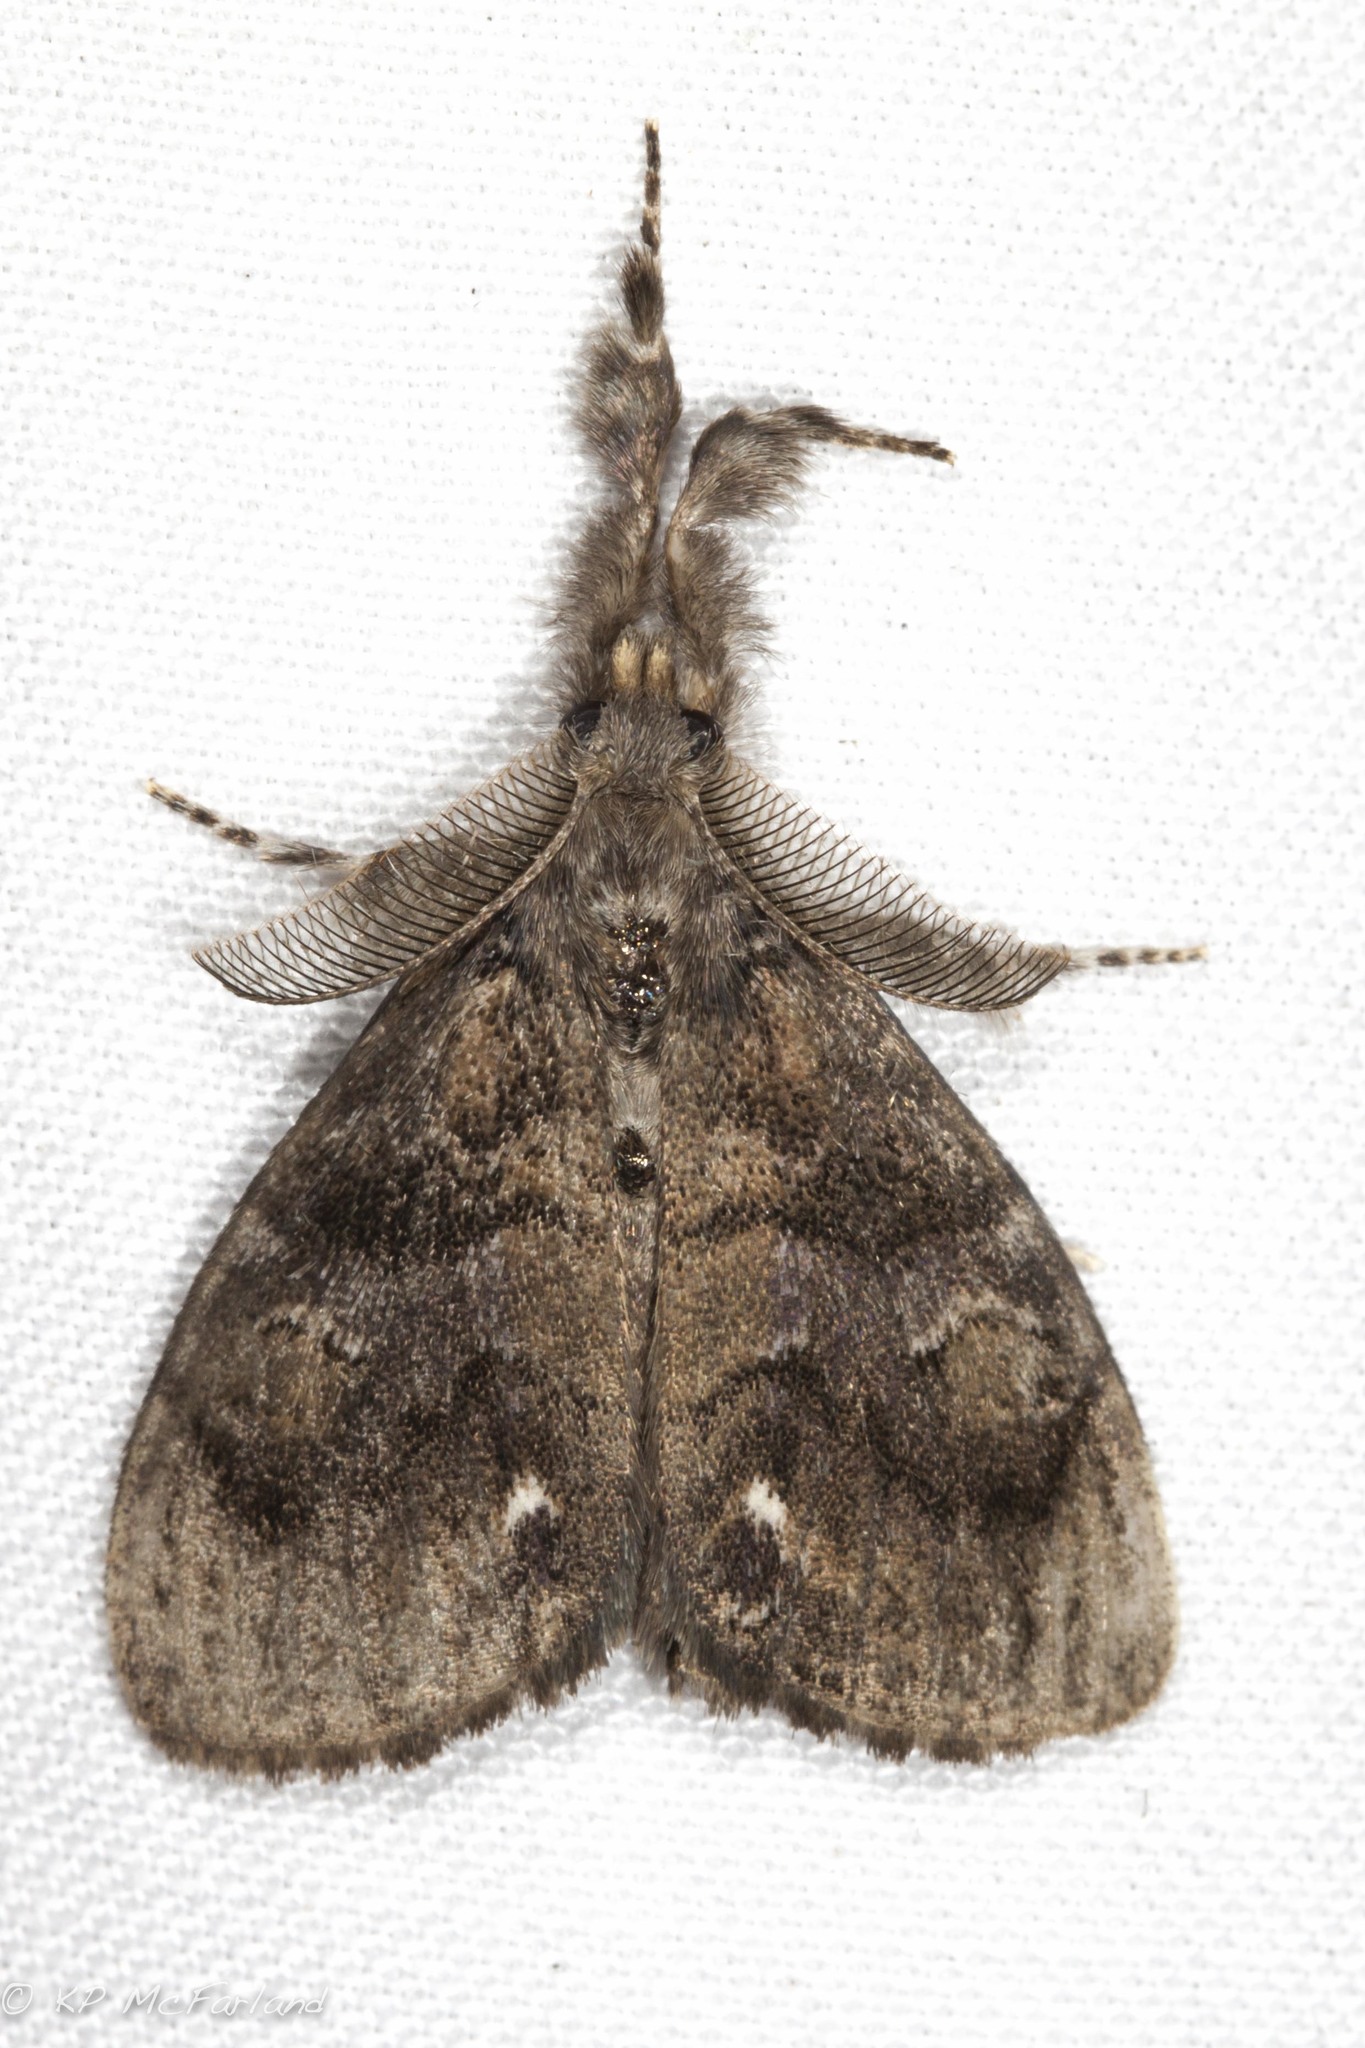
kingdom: Animalia
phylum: Arthropoda
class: Insecta
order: Lepidoptera
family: Erebidae
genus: Orgyia
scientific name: Orgyia definita
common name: Definite tussock moth
